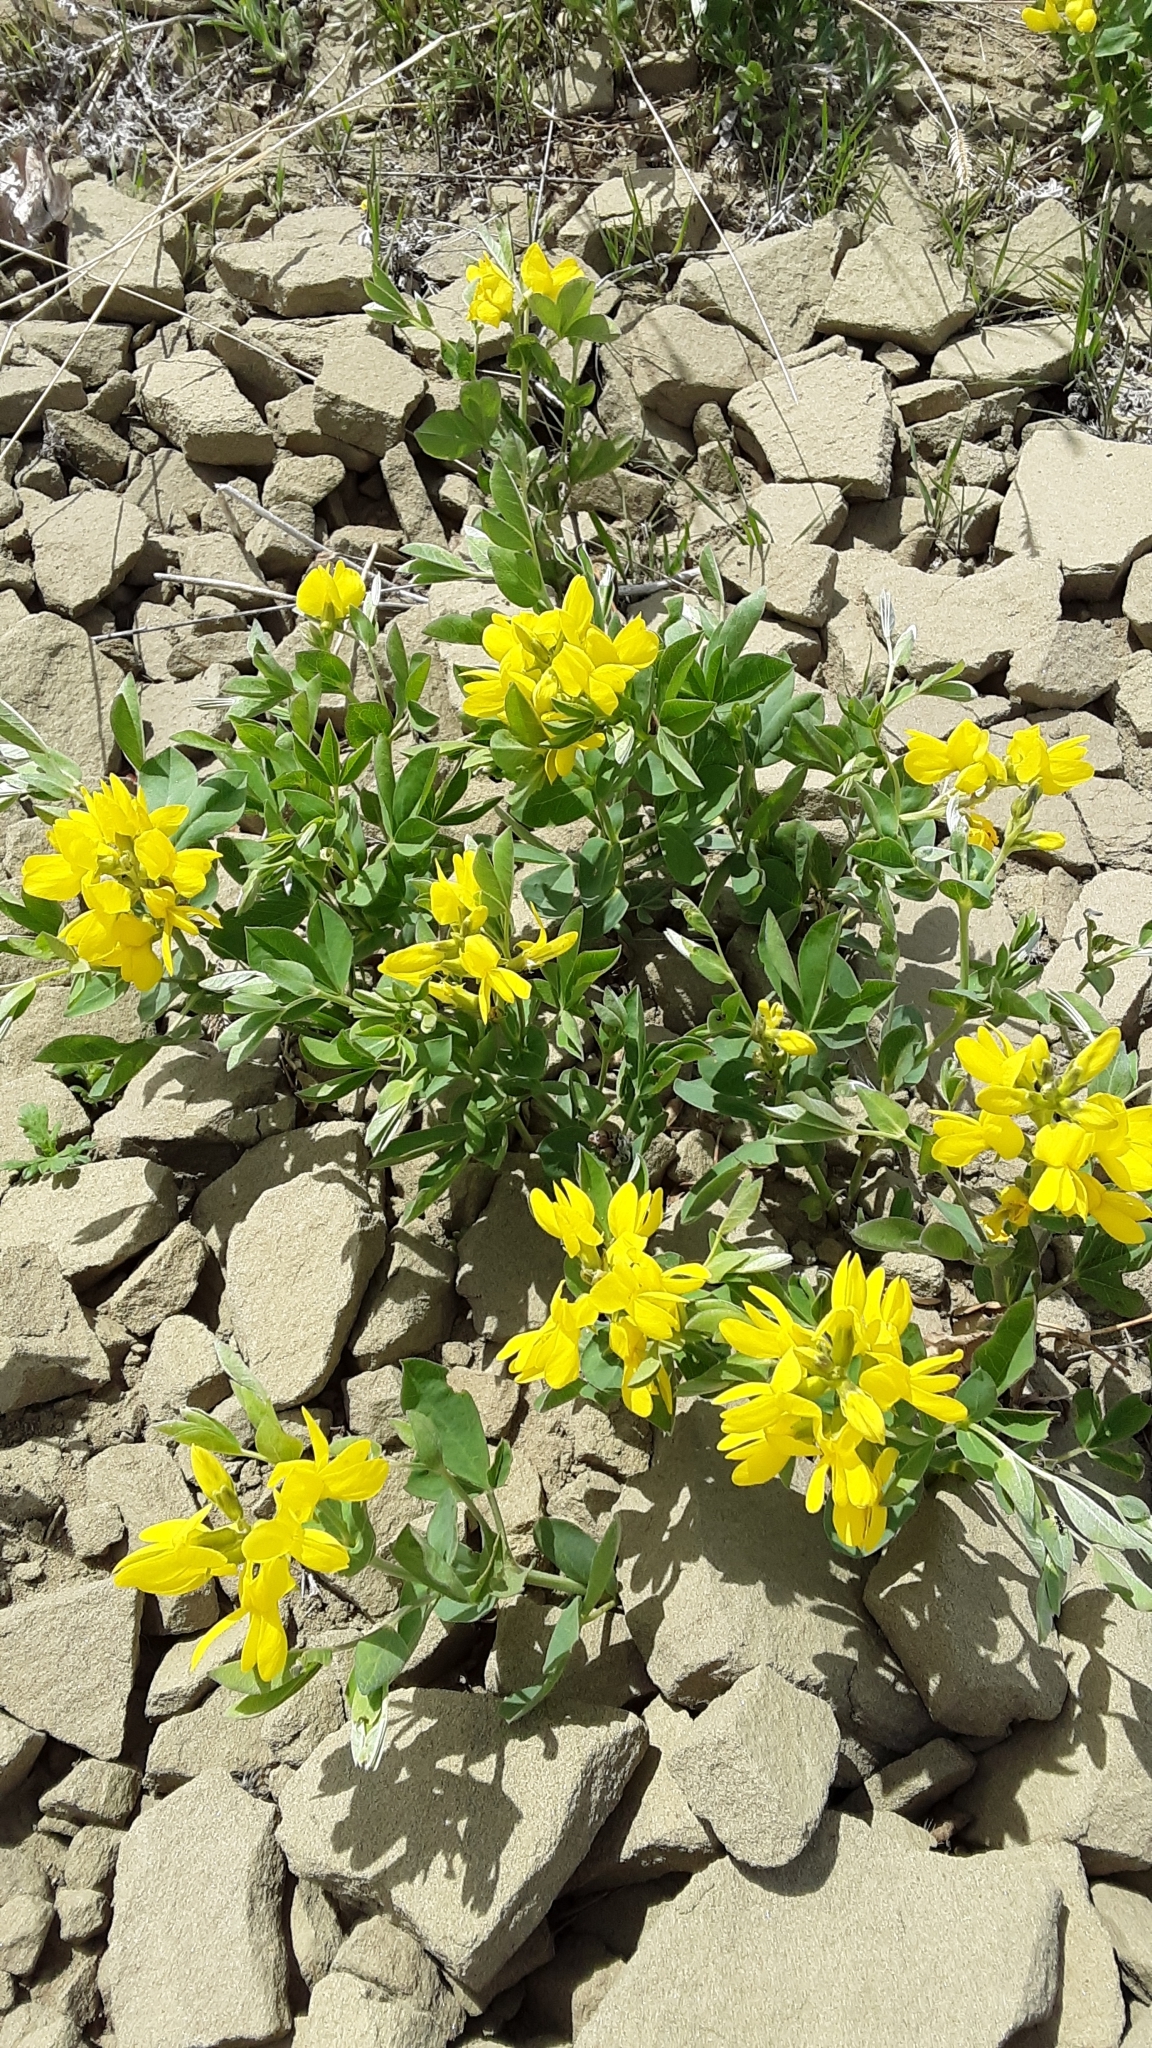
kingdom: Plantae
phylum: Tracheophyta
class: Magnoliopsida
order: Fabales
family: Fabaceae
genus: Thermopsis
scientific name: Thermopsis rhombifolia
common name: Circle-pod-pea
